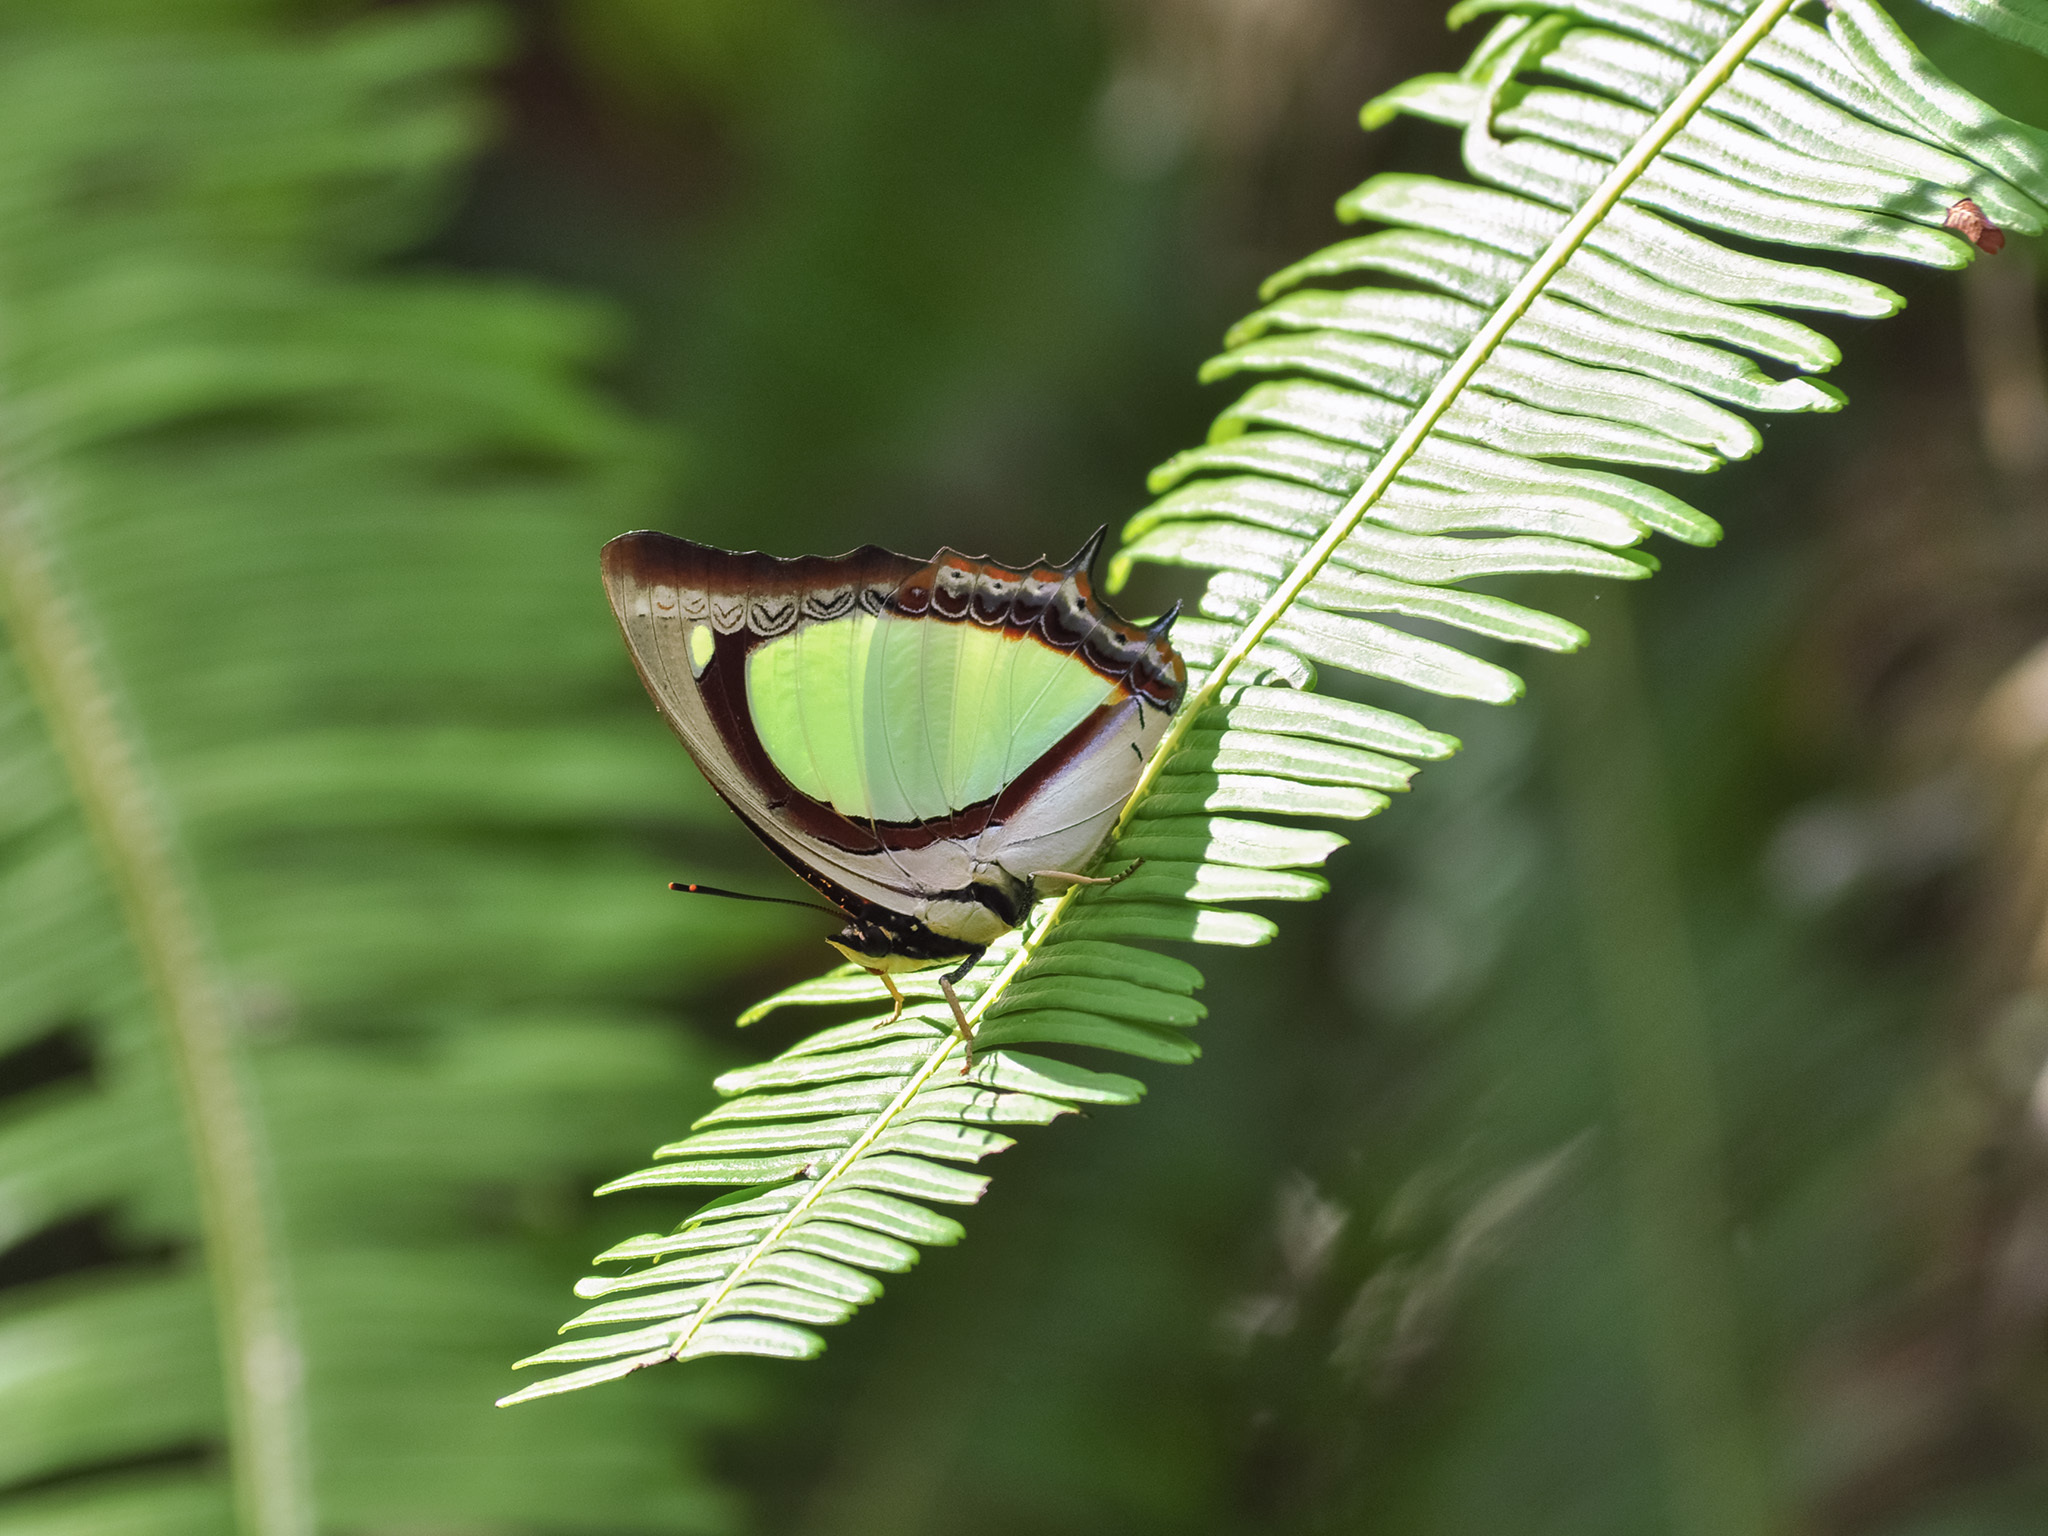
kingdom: Animalia
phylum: Arthropoda
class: Insecta
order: Lepidoptera
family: Nymphalidae
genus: Polyura
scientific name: Polyura jalysus
